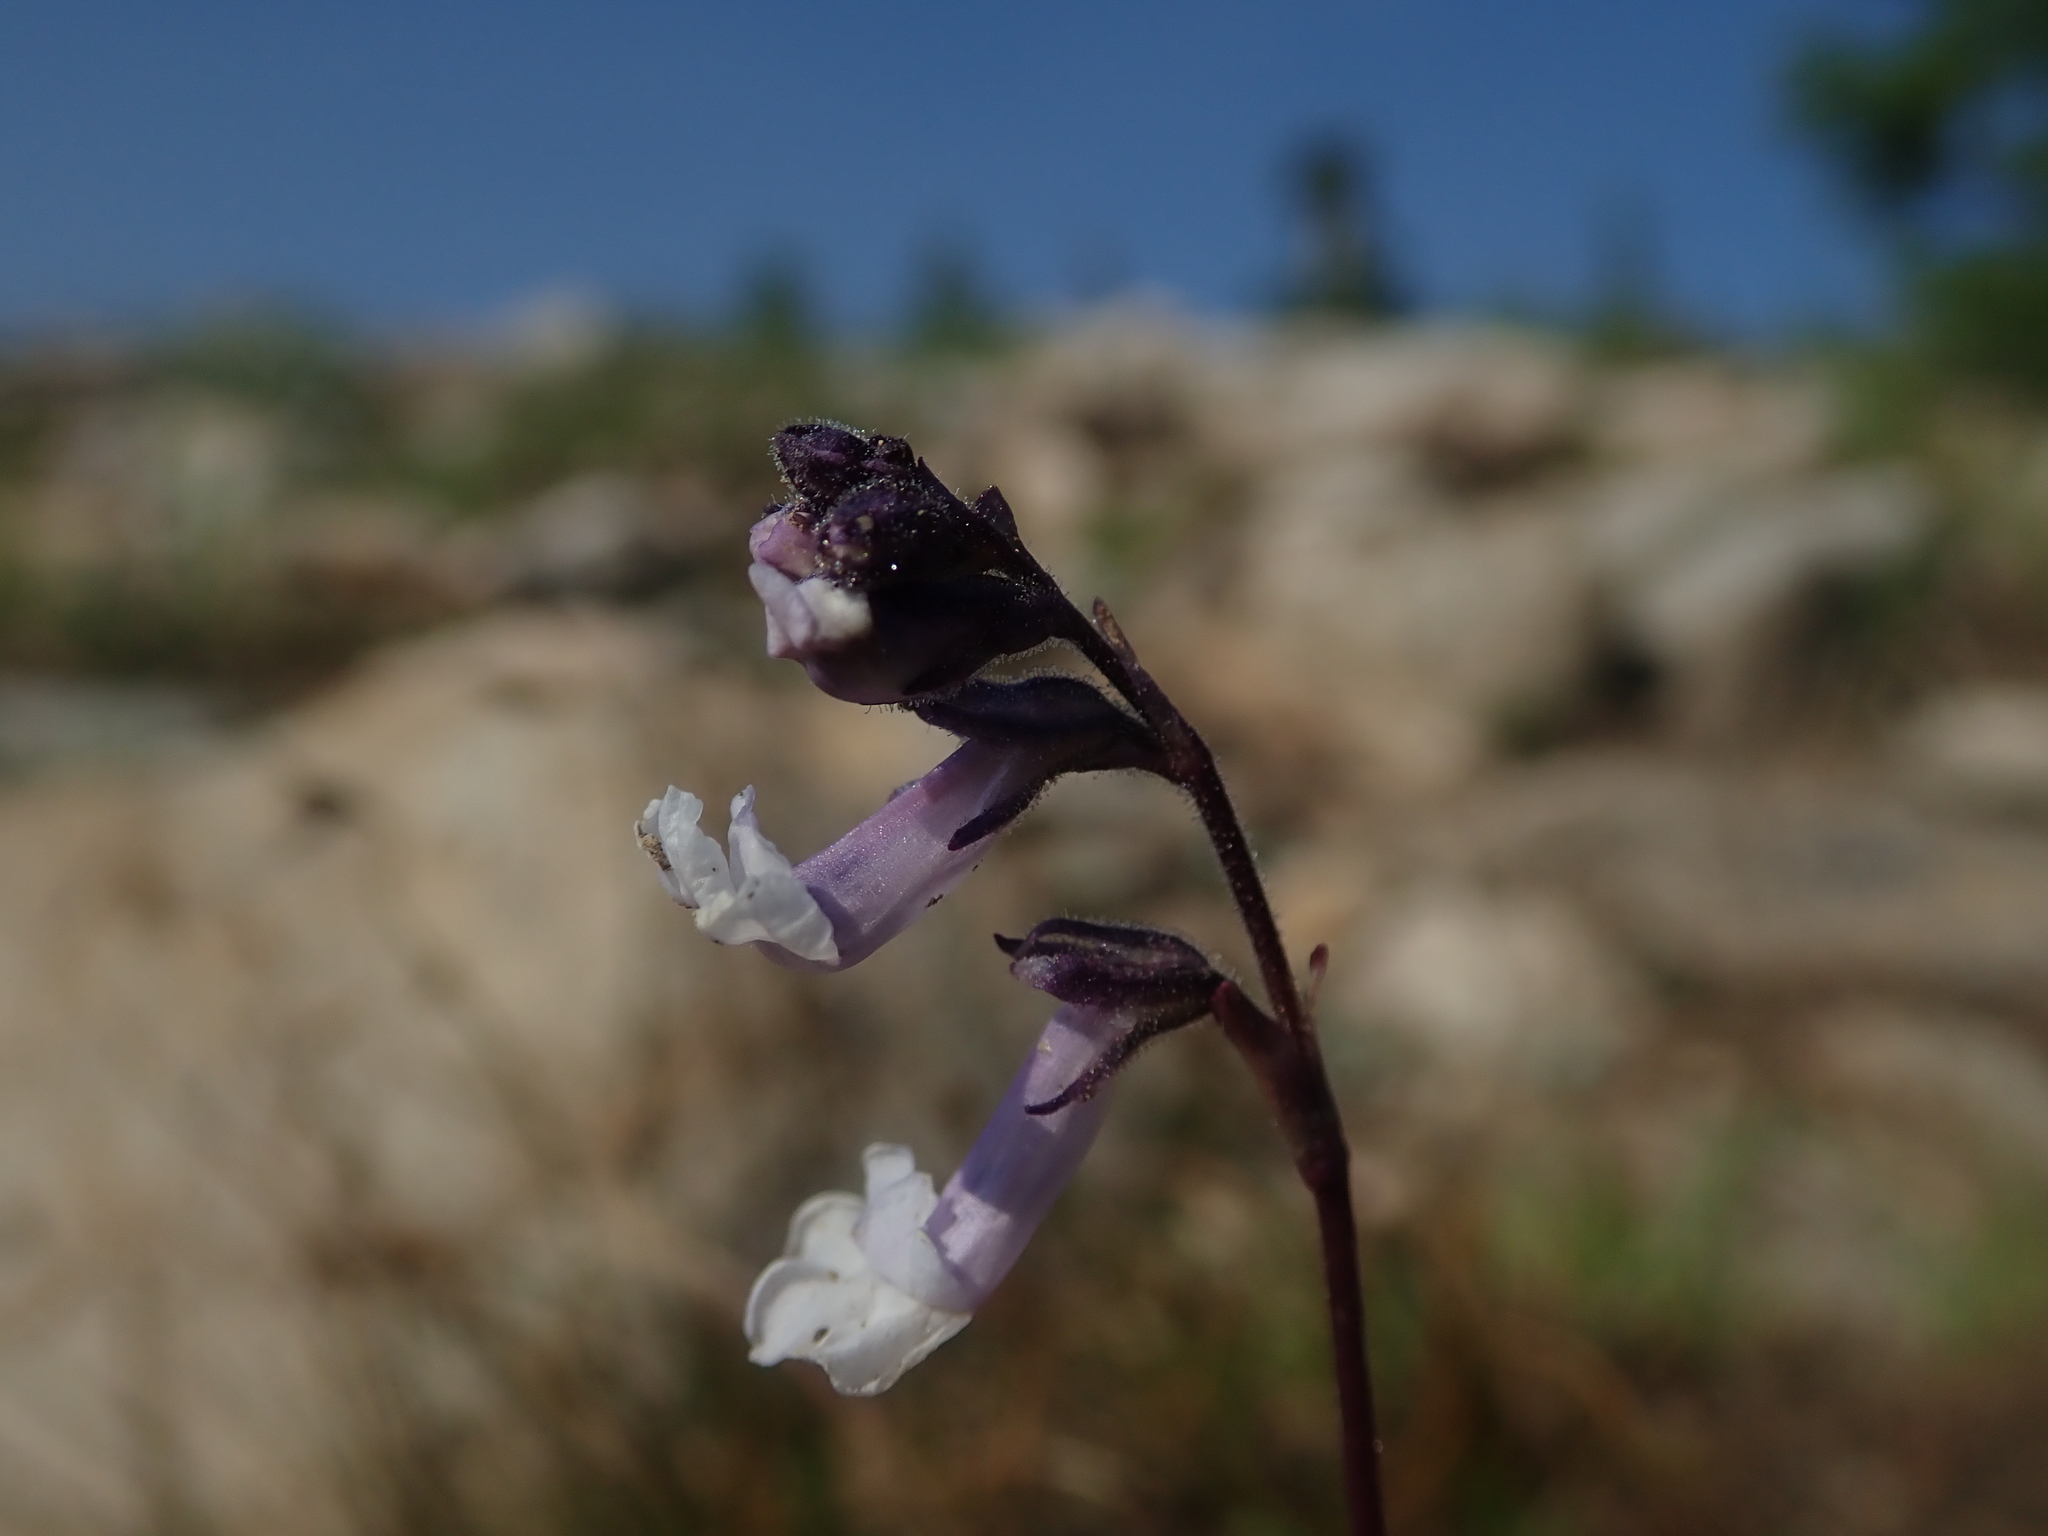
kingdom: Plantae
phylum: Tracheophyta
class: Magnoliopsida
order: Lamiales
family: Plantaginaceae
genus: Chionophila
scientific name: Chionophila tweedyi
